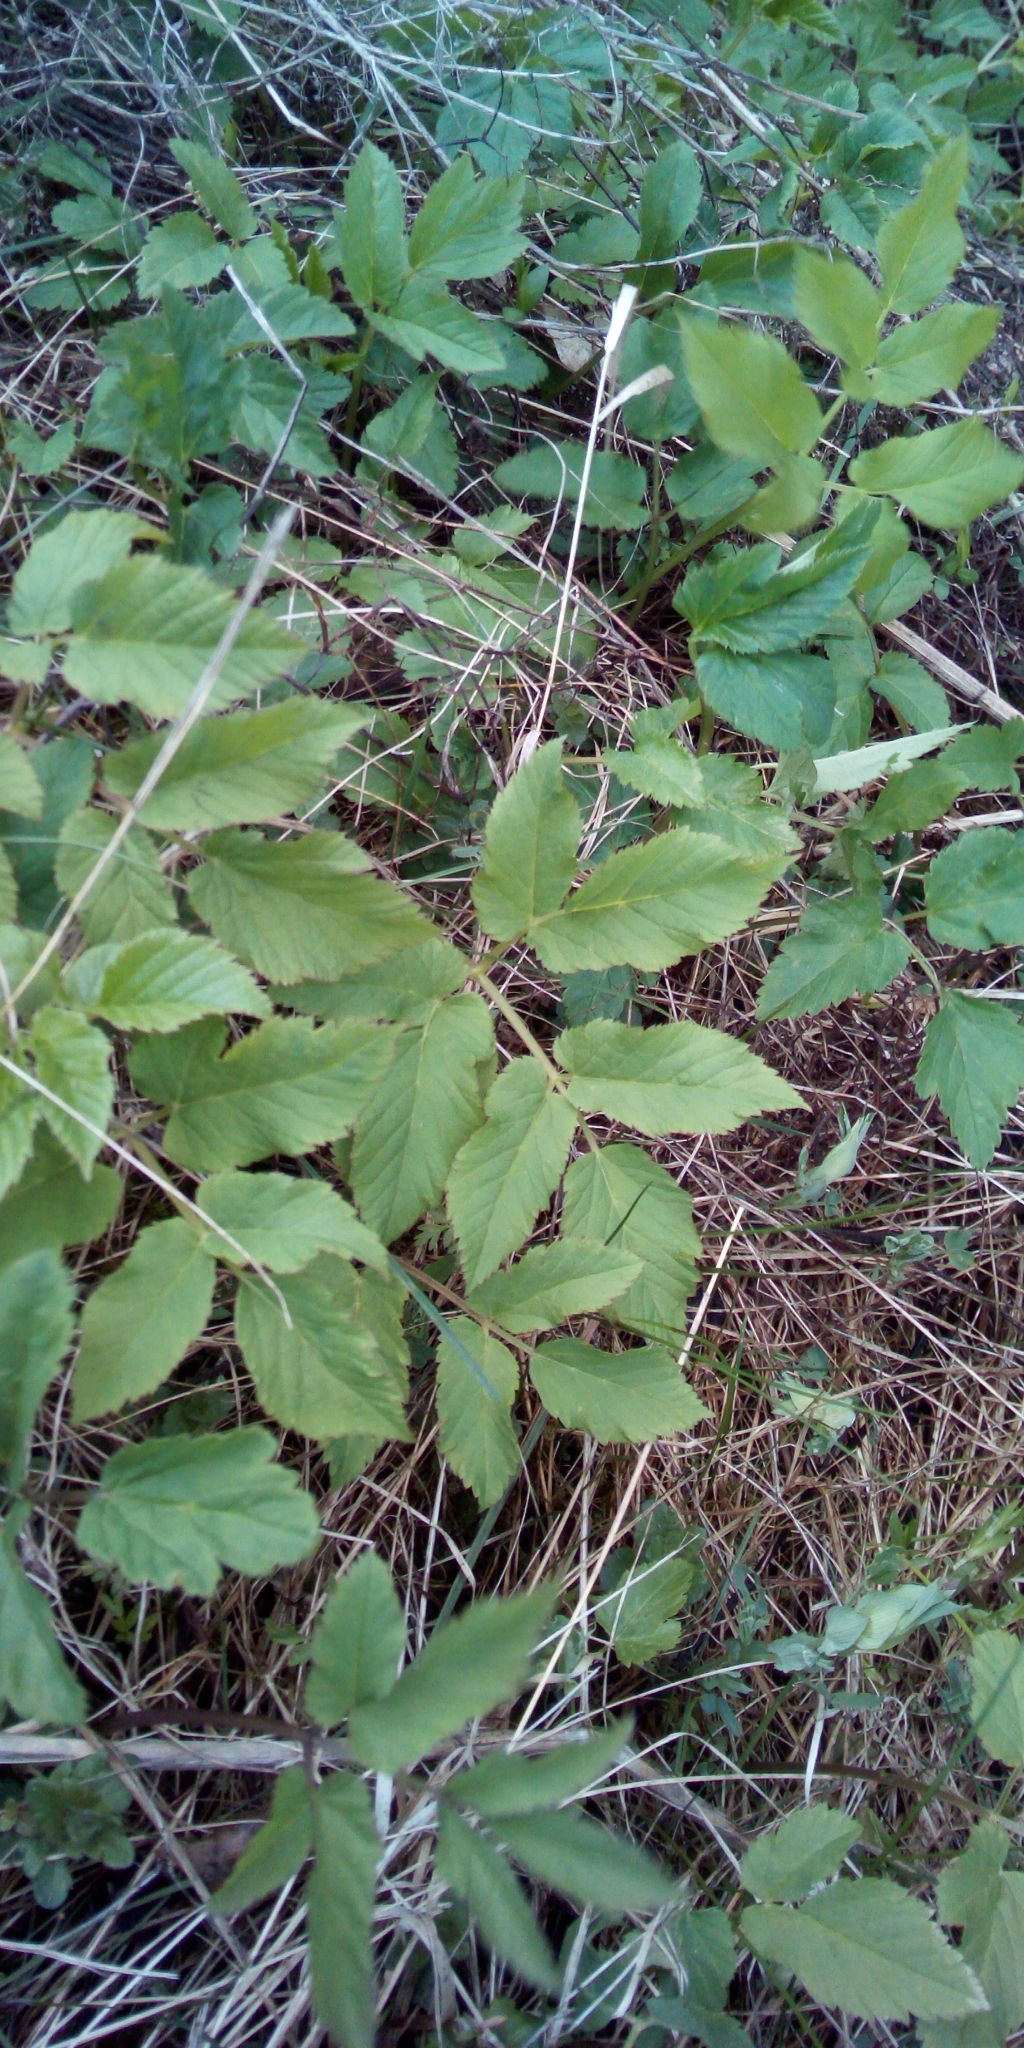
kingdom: Plantae
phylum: Tracheophyta
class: Magnoliopsida
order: Apiales
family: Apiaceae
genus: Aegopodium
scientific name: Aegopodium podagraria
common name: Ground-elder
